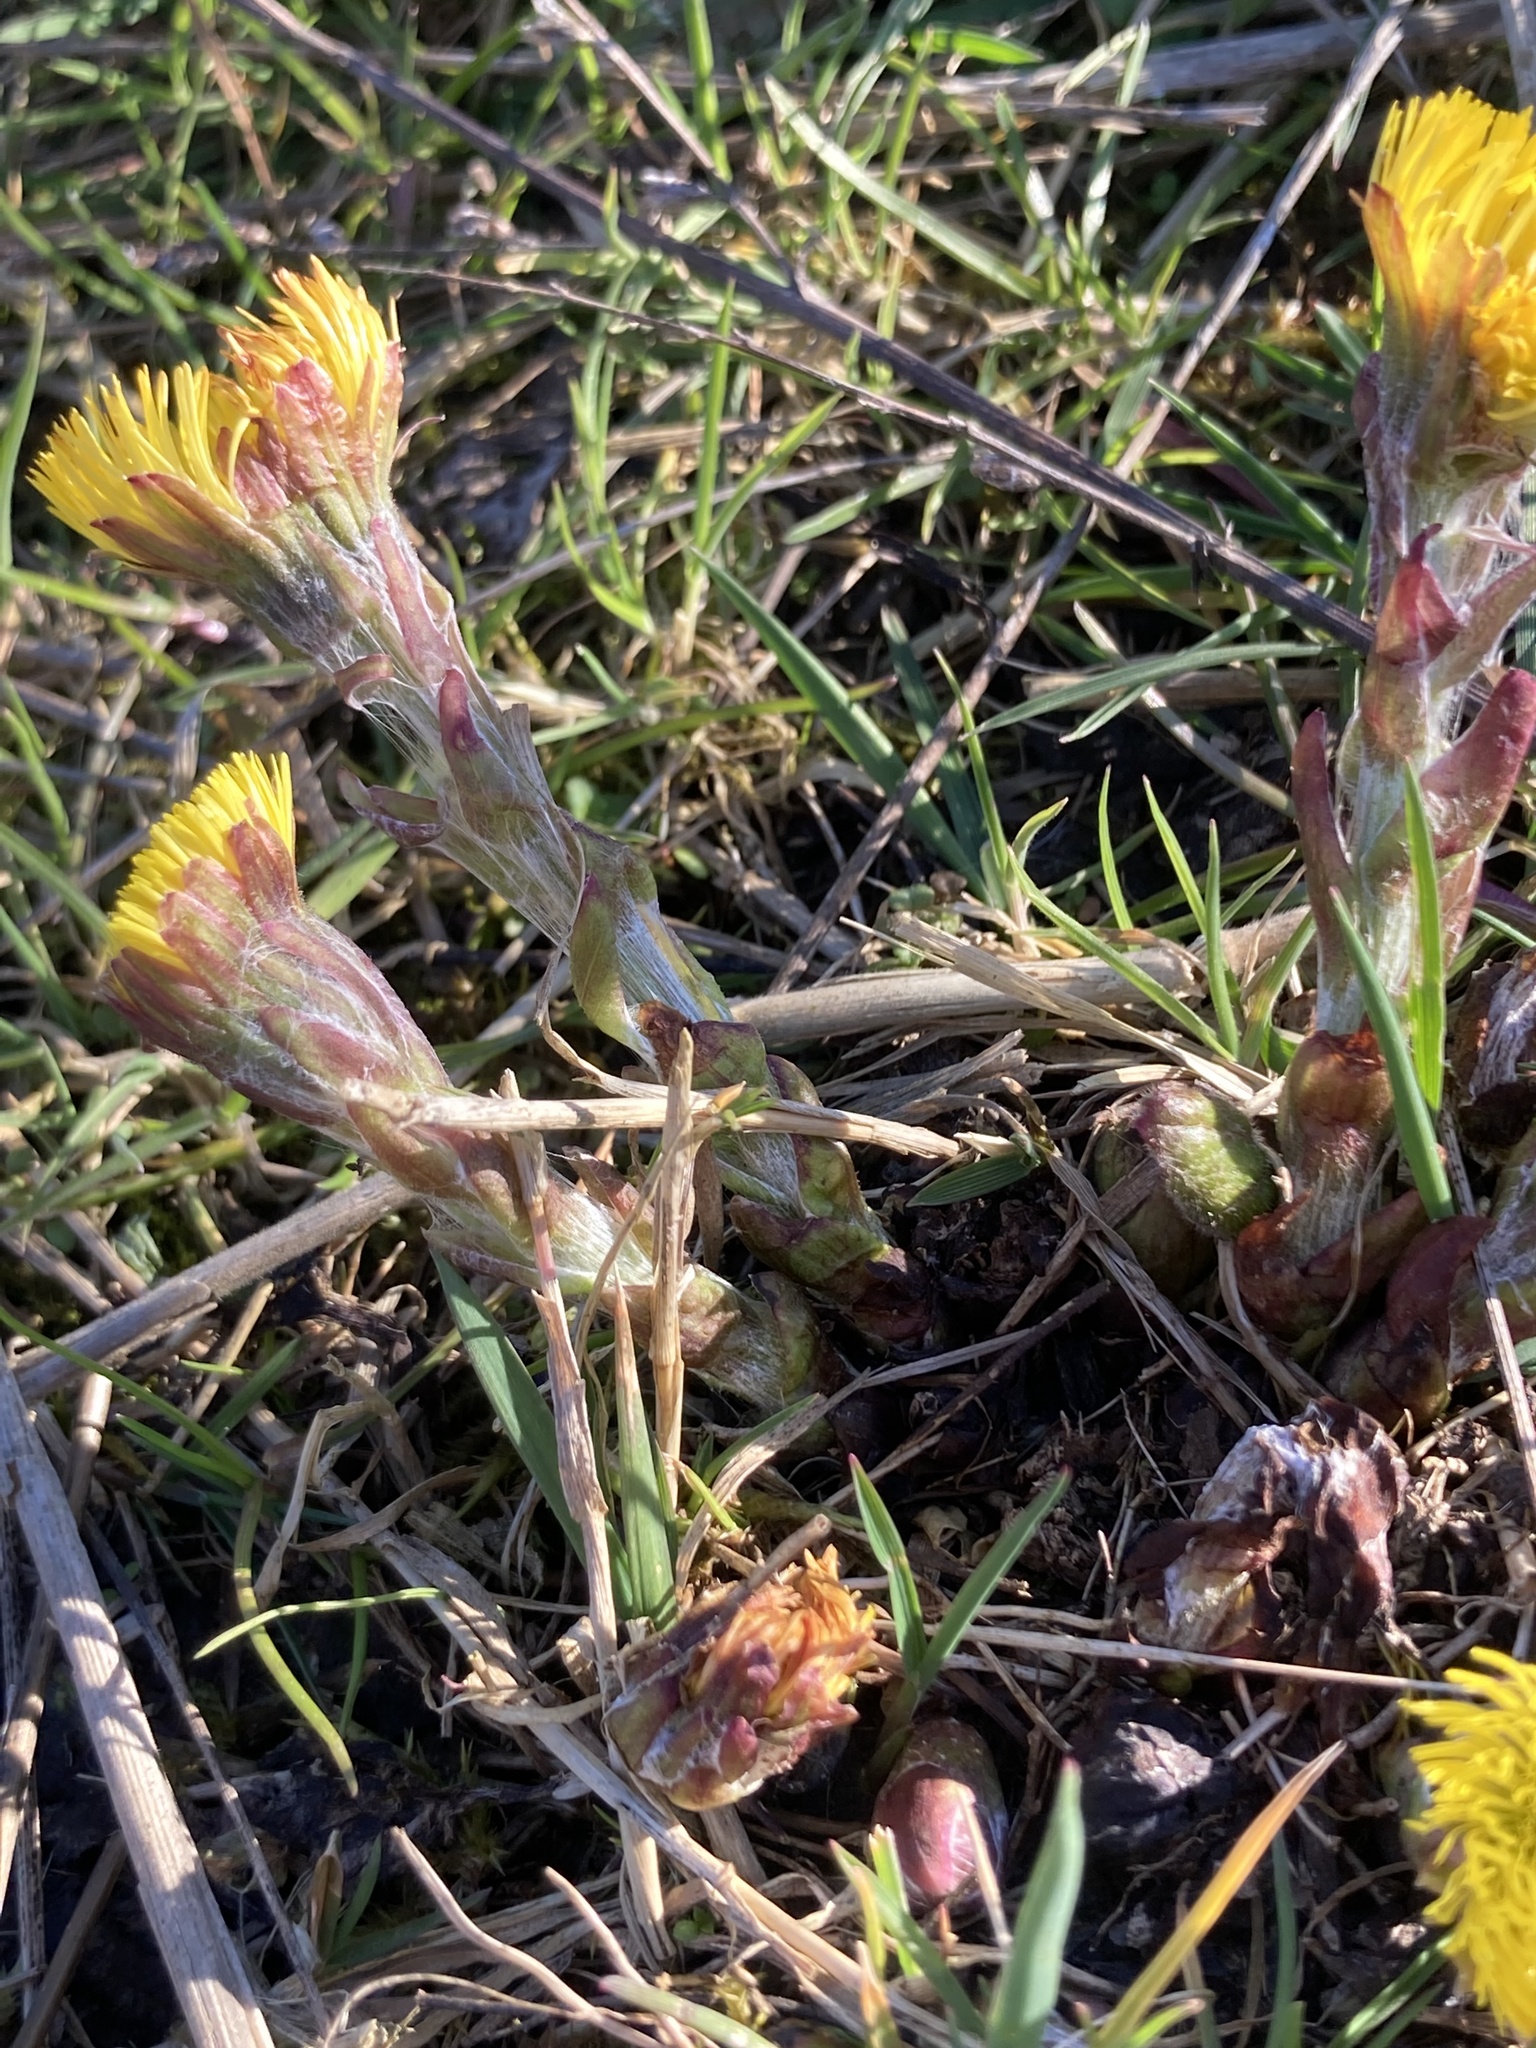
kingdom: Plantae
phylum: Tracheophyta
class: Magnoliopsida
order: Asterales
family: Asteraceae
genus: Tussilago
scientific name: Tussilago farfara
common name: Coltsfoot
